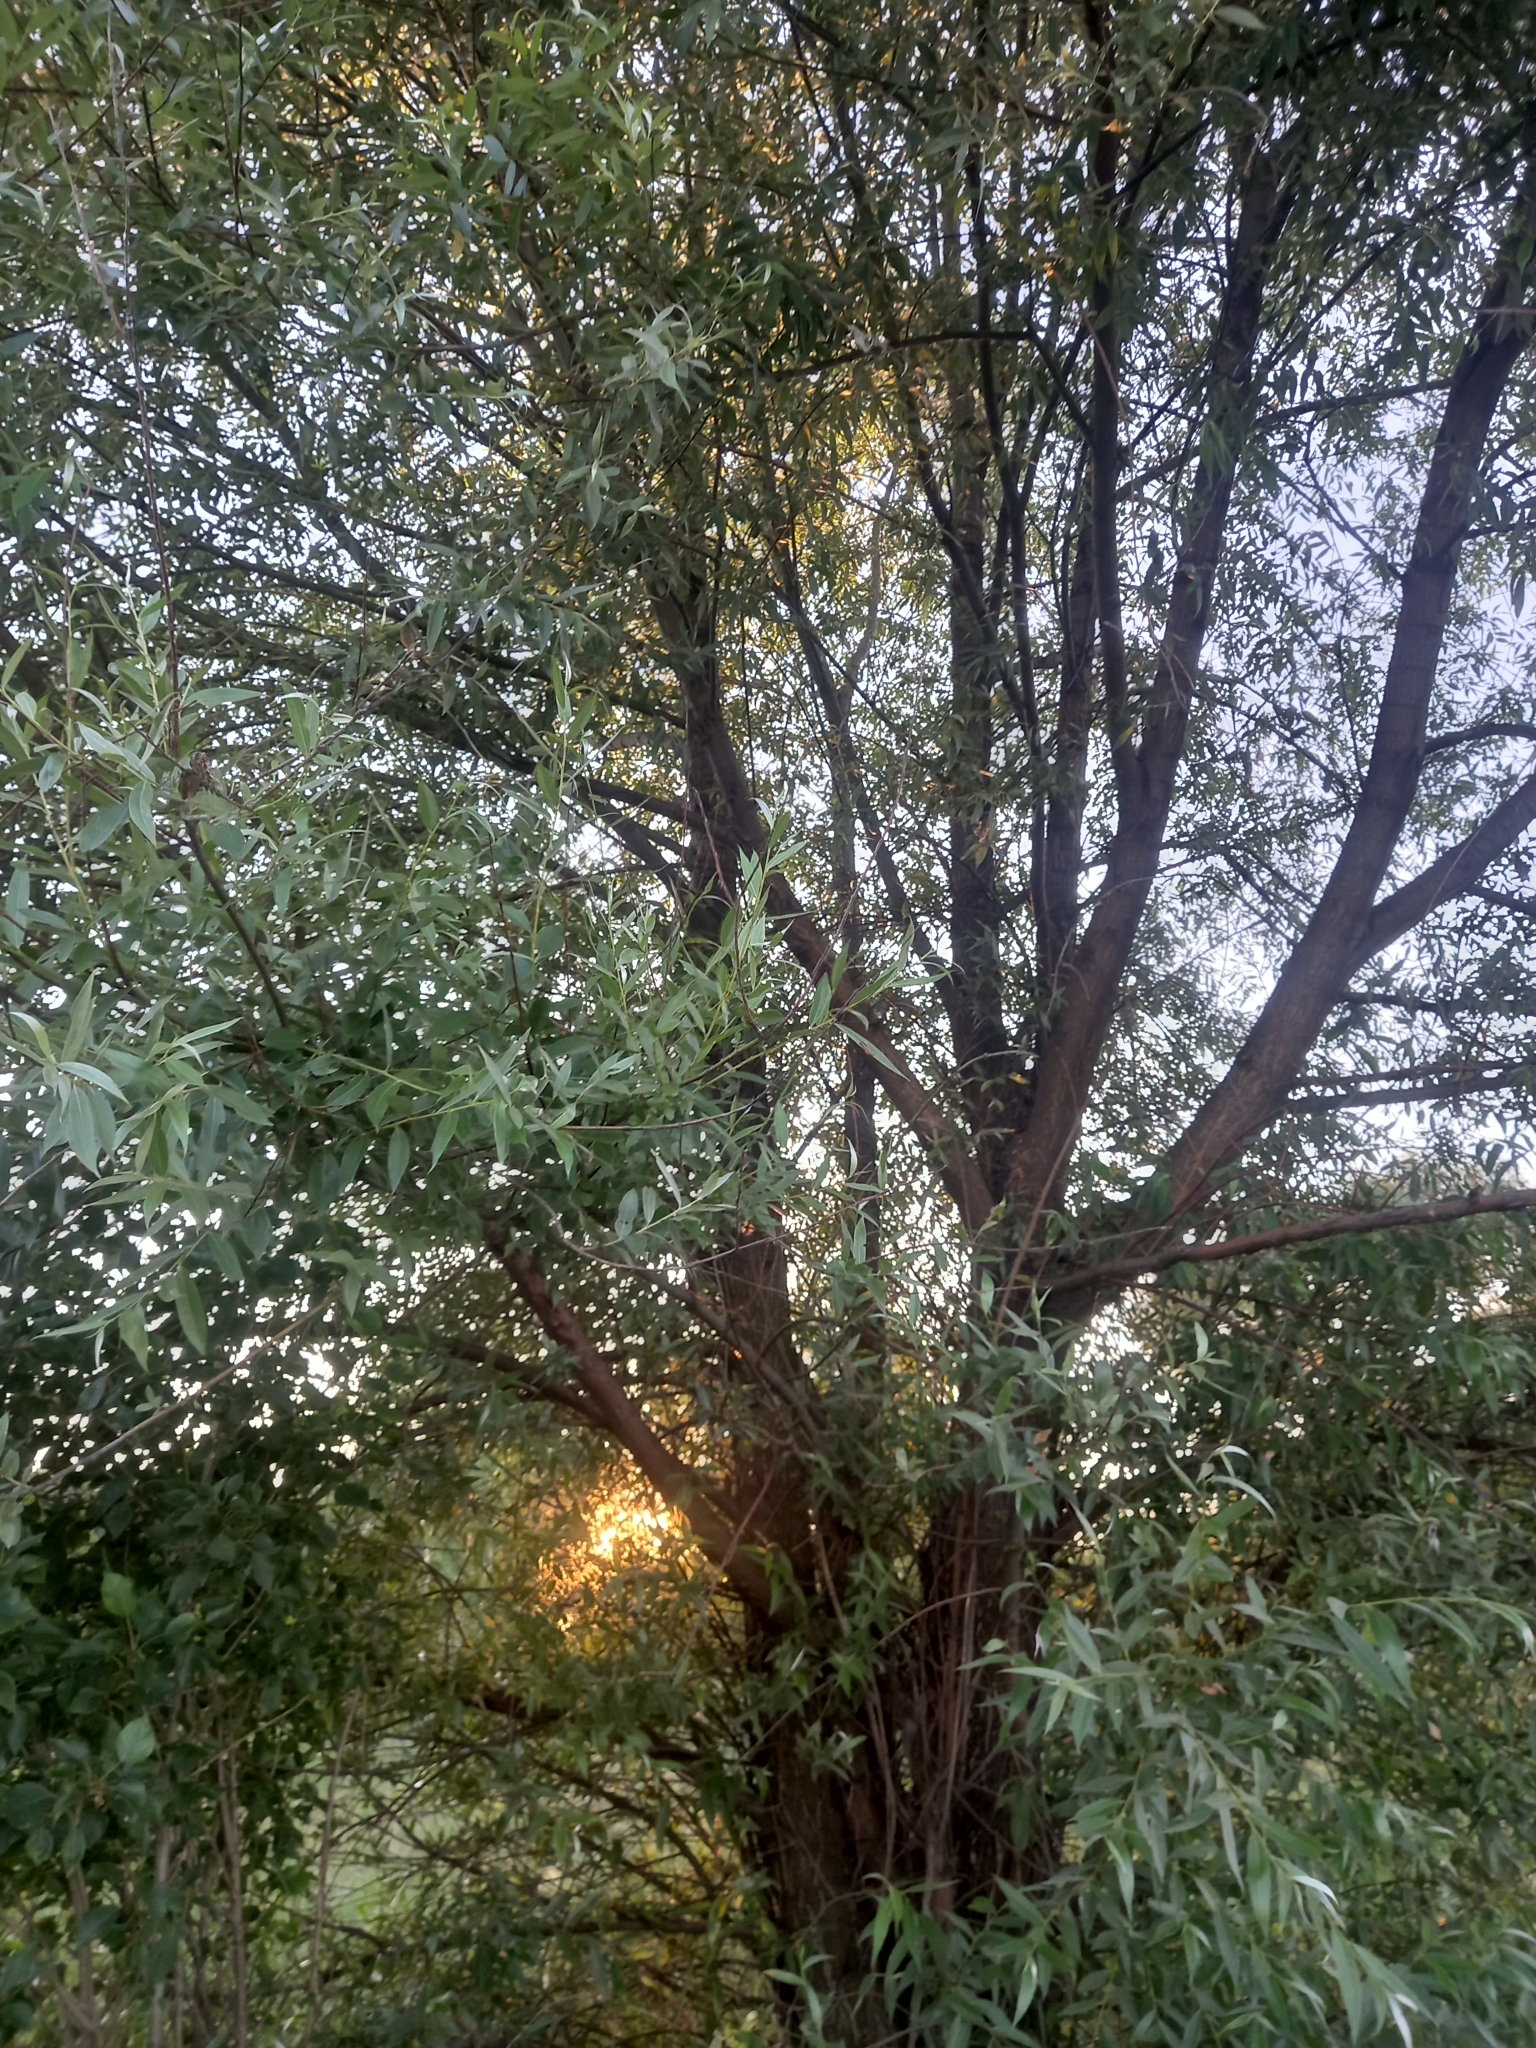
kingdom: Plantae
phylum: Tracheophyta
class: Magnoliopsida
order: Malpighiales
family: Salicaceae
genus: Salix
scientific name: Salix alba
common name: White willow
